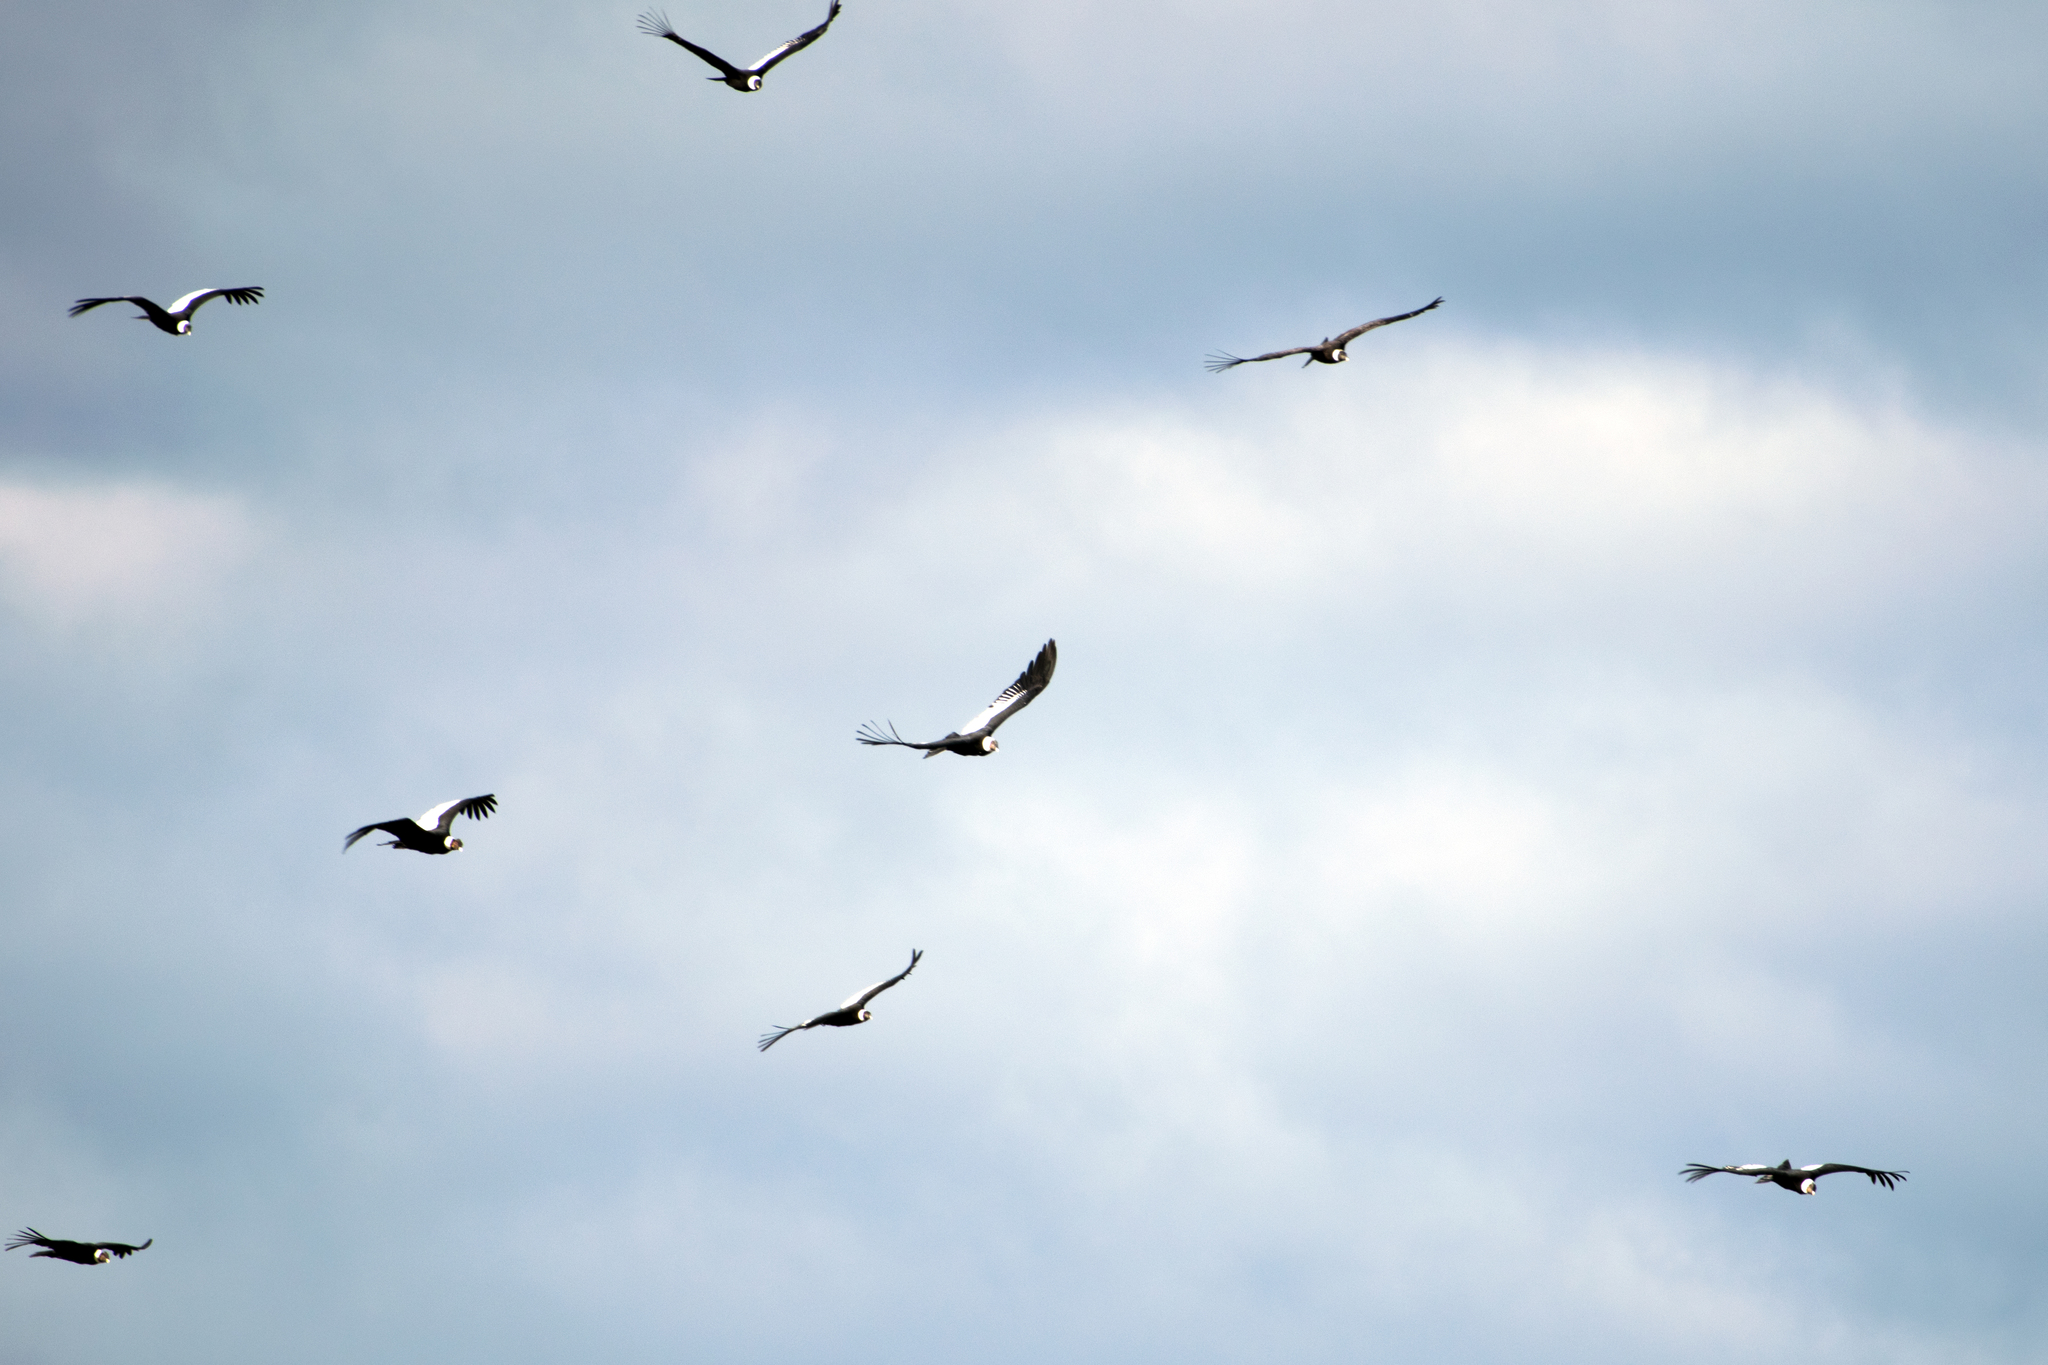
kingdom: Animalia
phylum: Chordata
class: Aves
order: Accipitriformes
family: Cathartidae
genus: Vultur
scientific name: Vultur gryphus
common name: Andean condor
